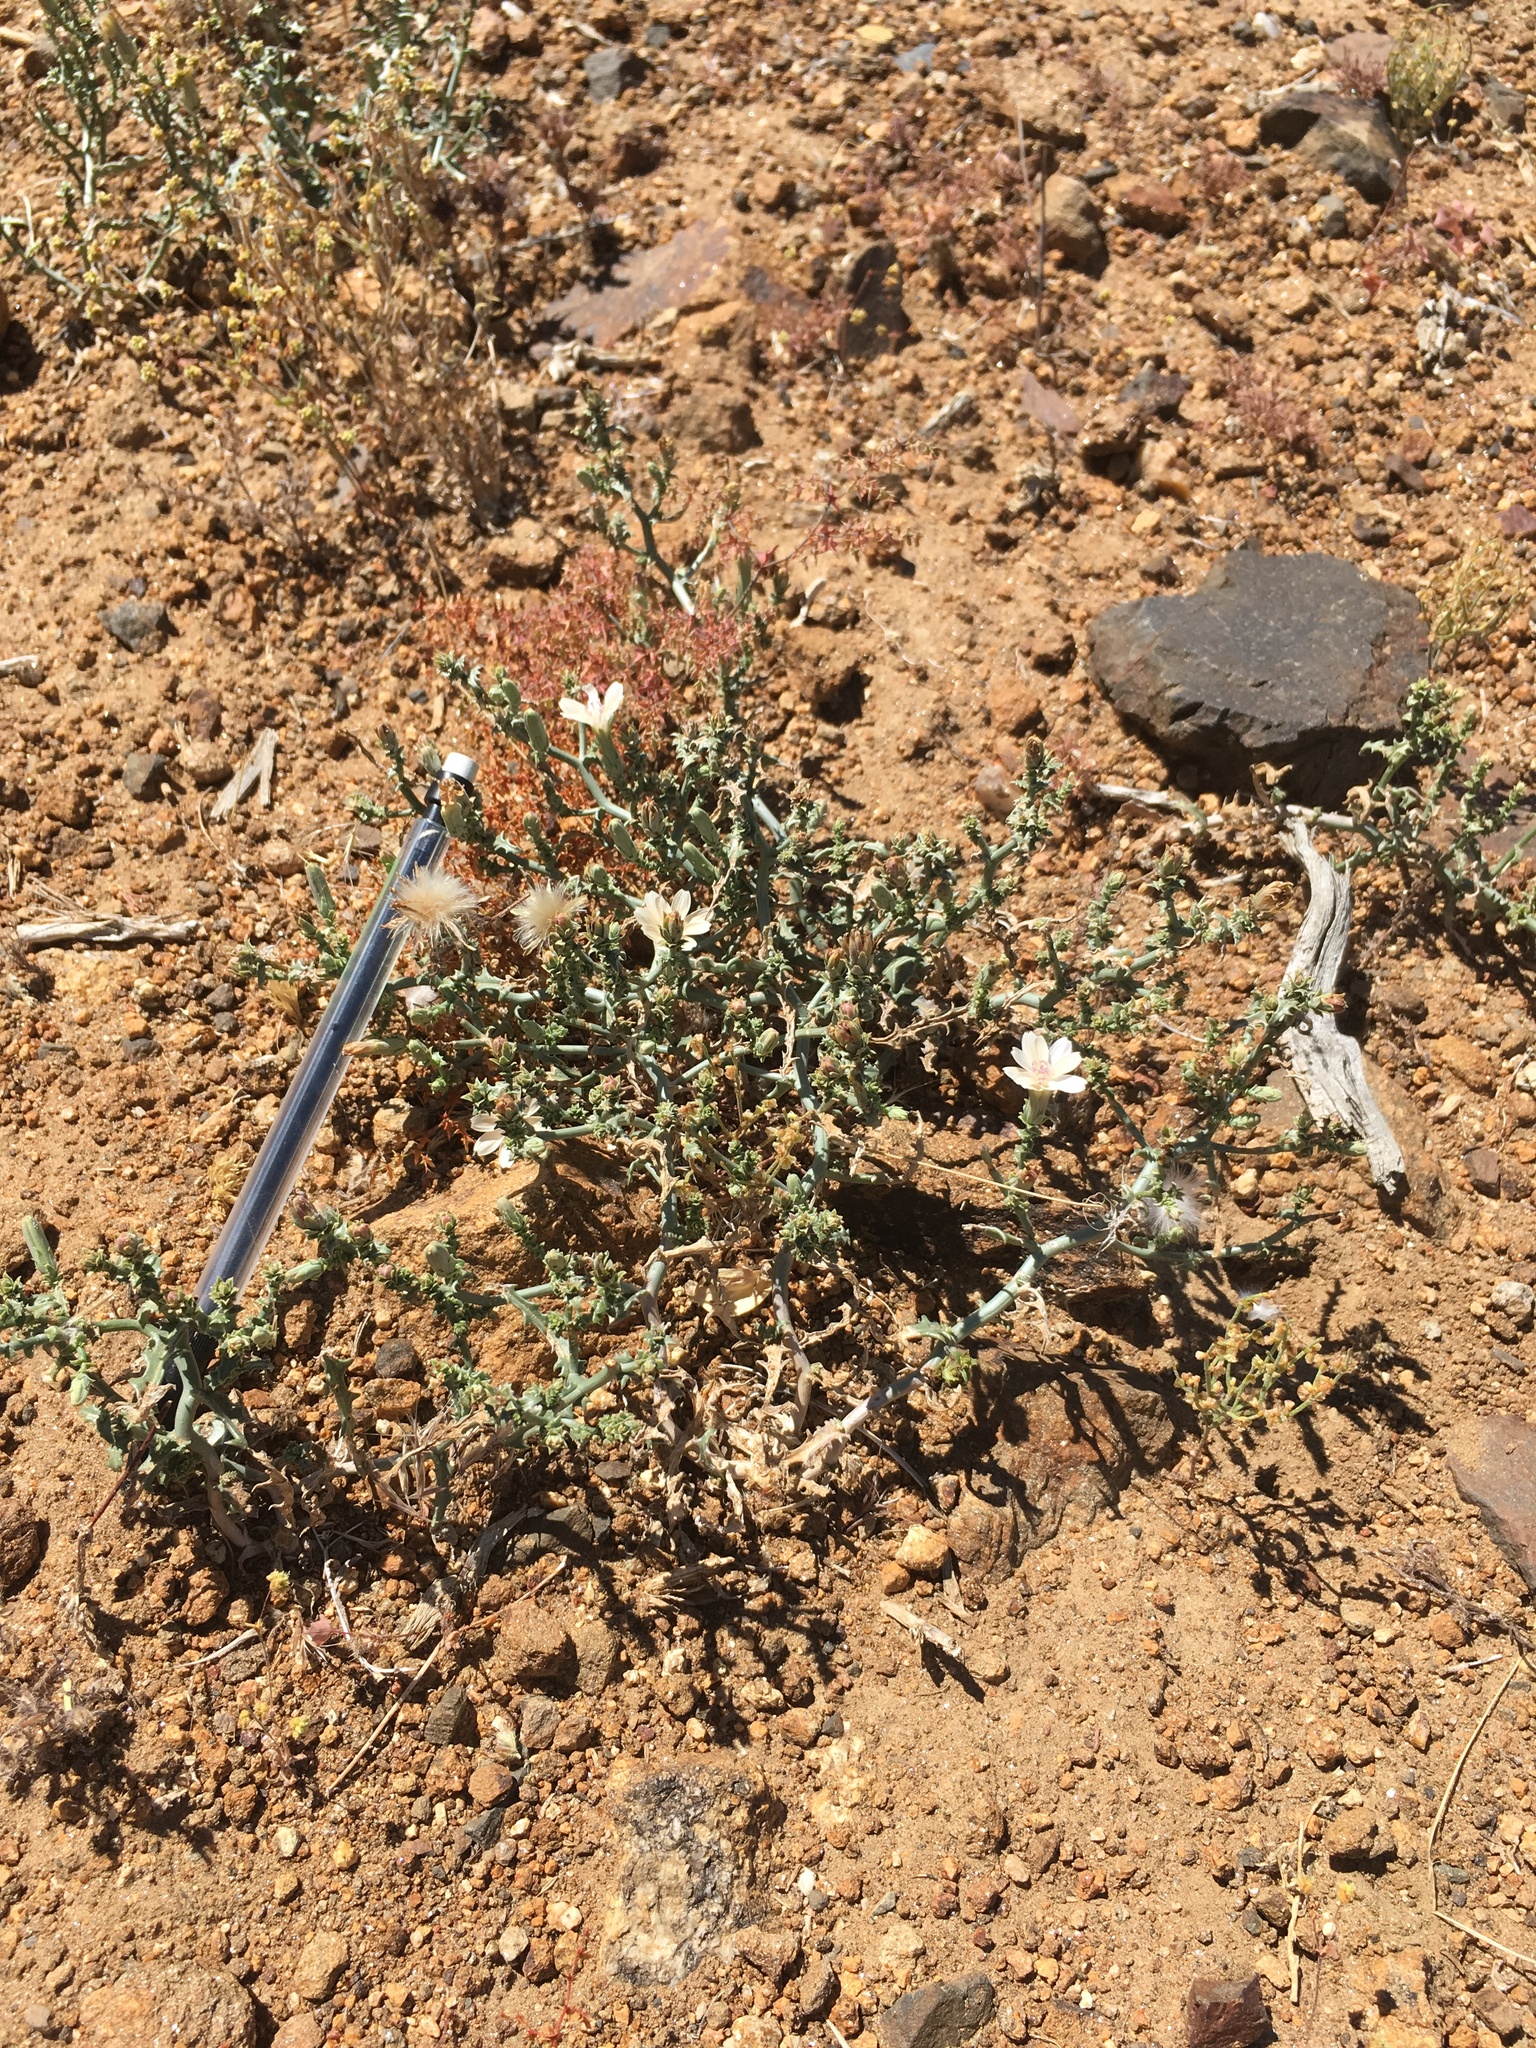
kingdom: Plantae
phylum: Tracheophyta
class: Magnoliopsida
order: Asterales
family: Asteraceae
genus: Stephanomeria
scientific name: Stephanomeria parryi
